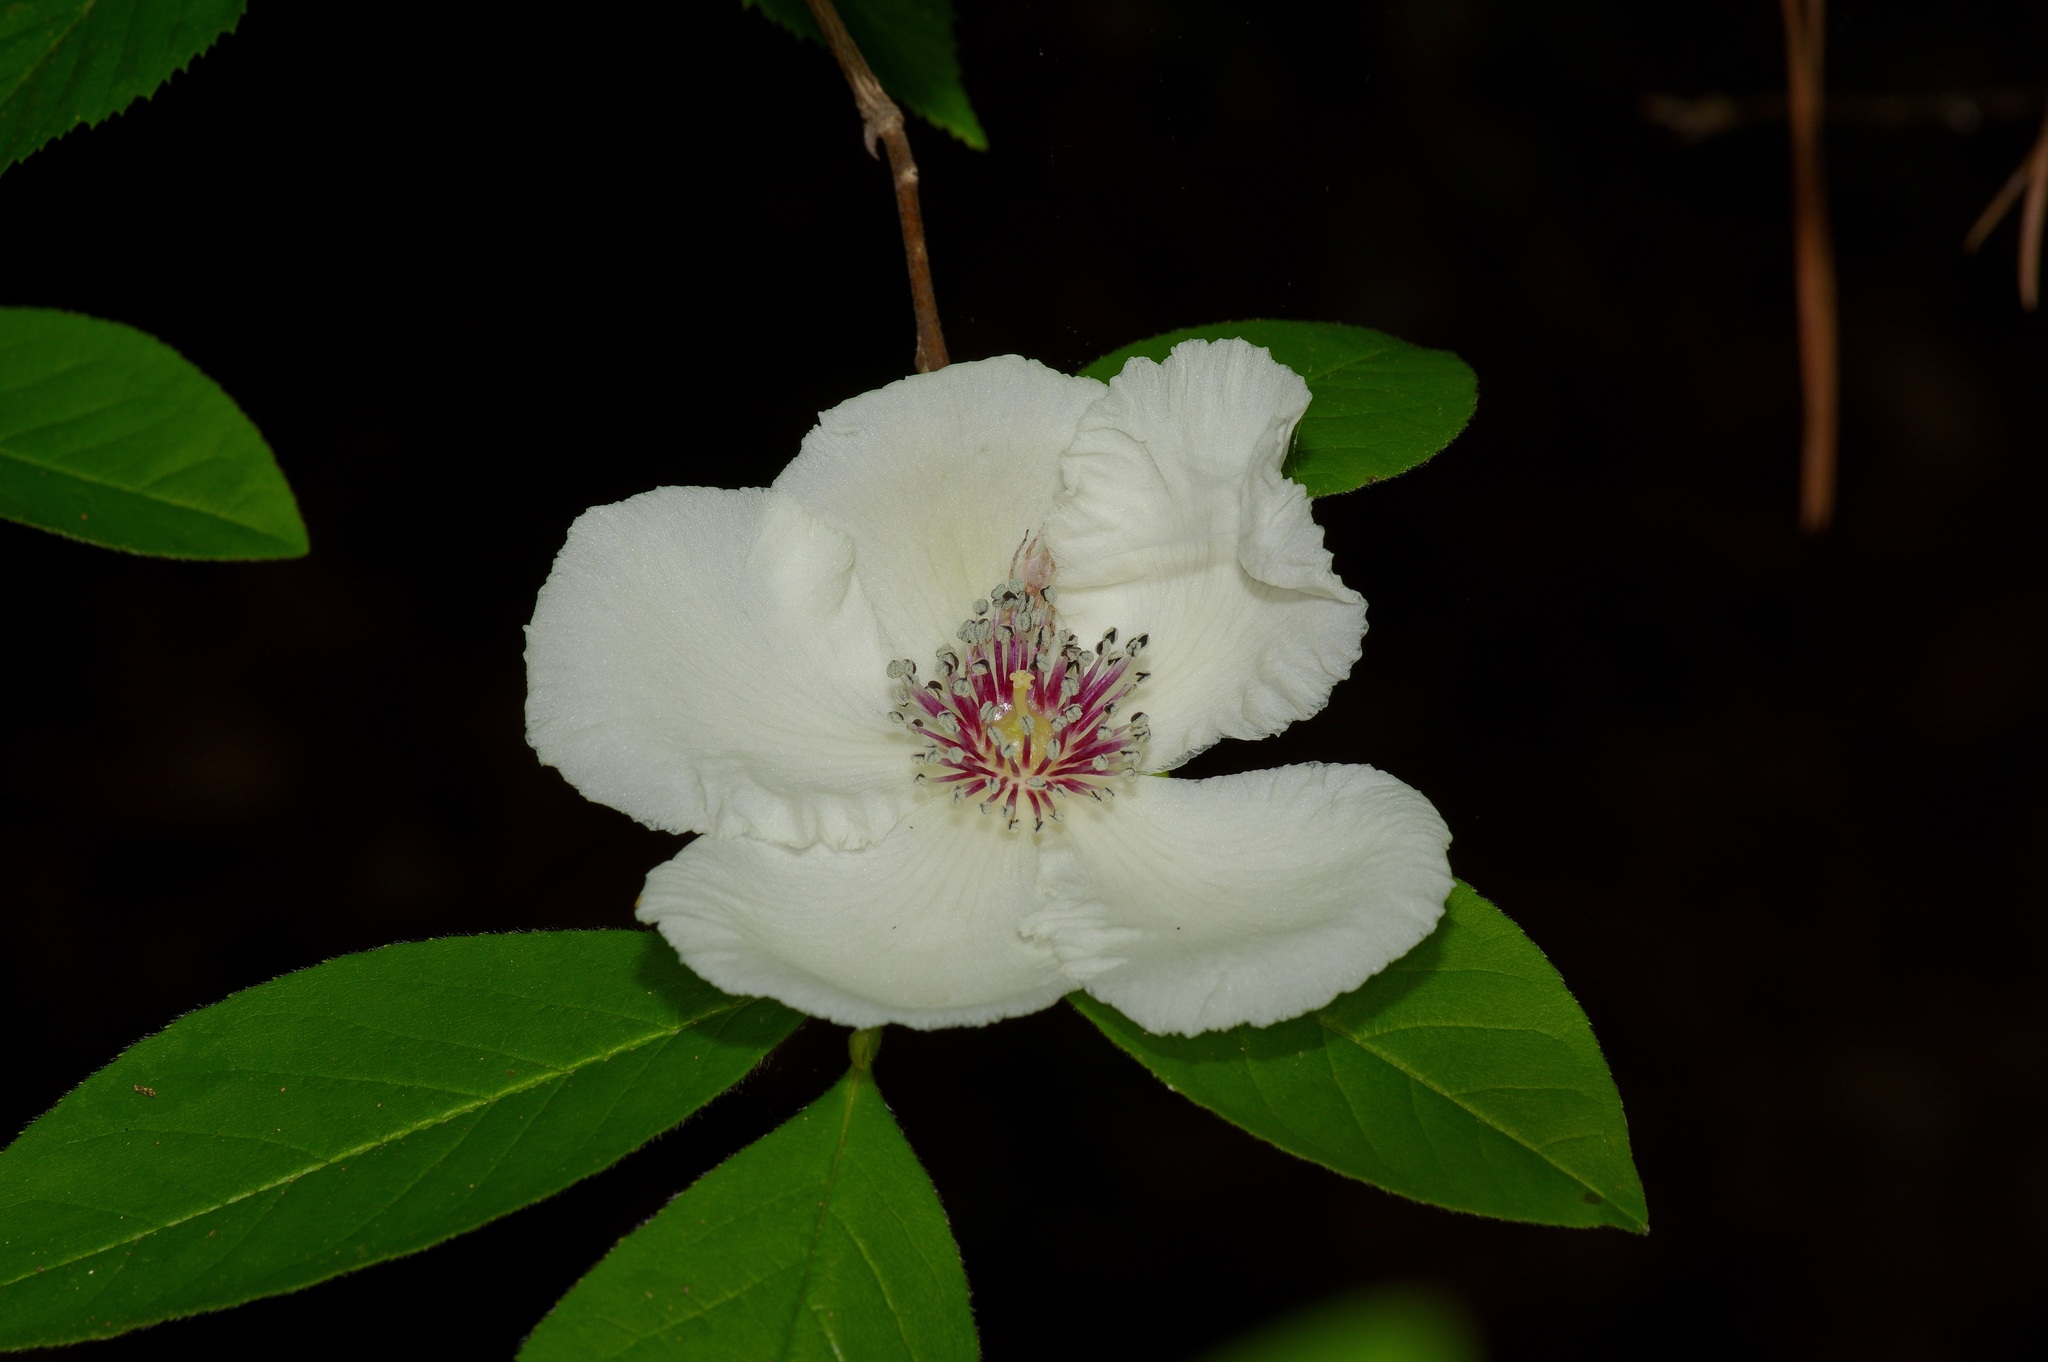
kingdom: Plantae
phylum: Tracheophyta
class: Magnoliopsida
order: Ericales
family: Theaceae
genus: Stewartia
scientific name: Stewartia malacodendron
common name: Virginia stewartia
